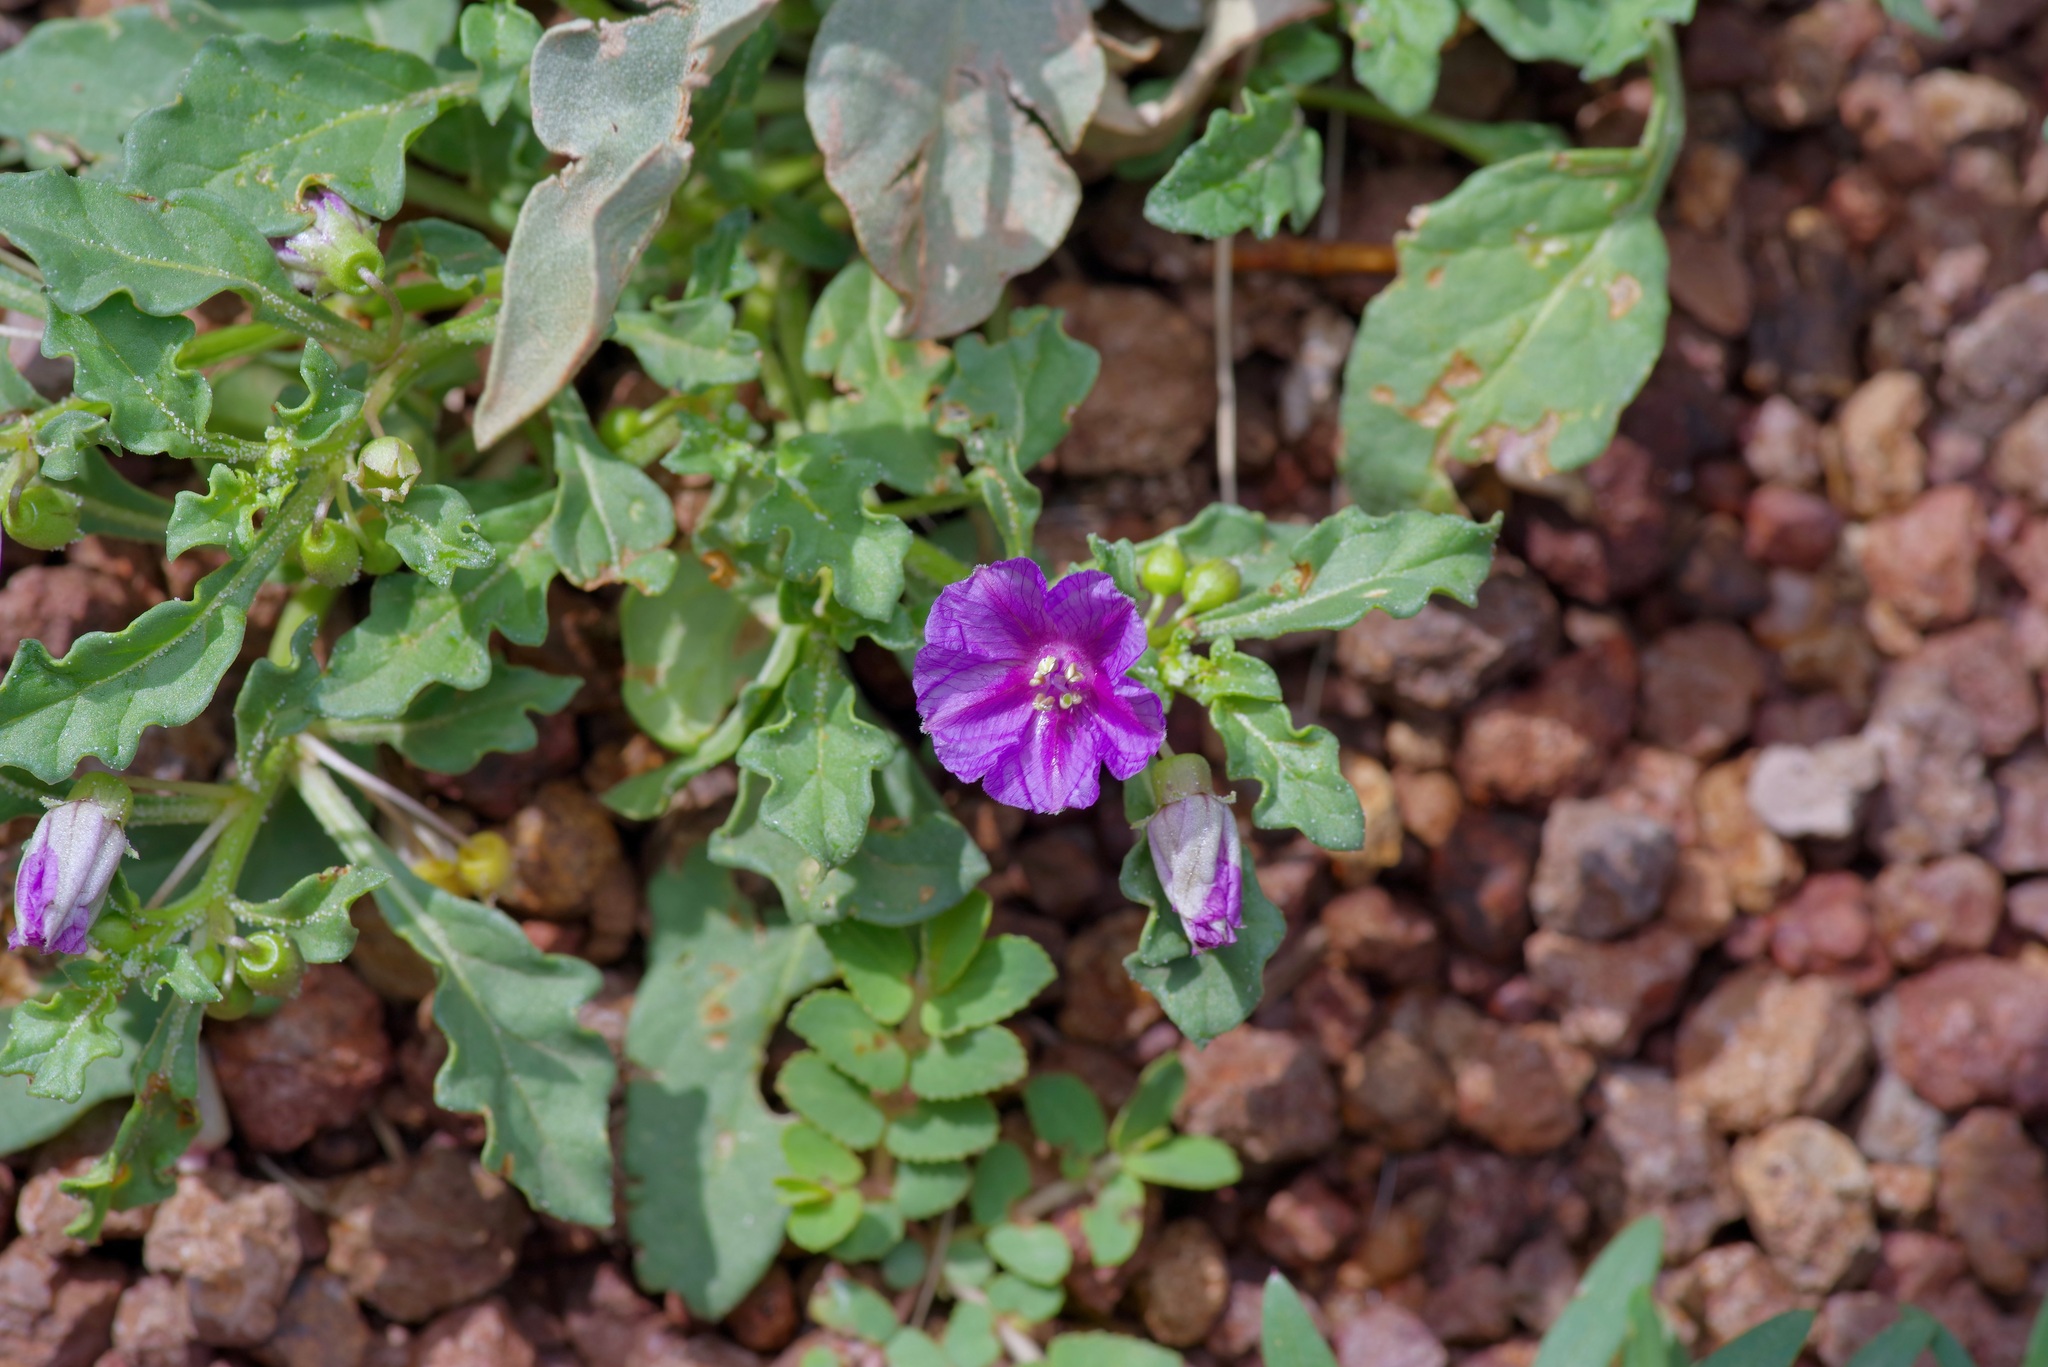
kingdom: Plantae
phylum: Tracheophyta
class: Magnoliopsida
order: Solanales
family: Solanaceae
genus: Quincula
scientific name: Quincula lobata
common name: Purple-ground-cherry
